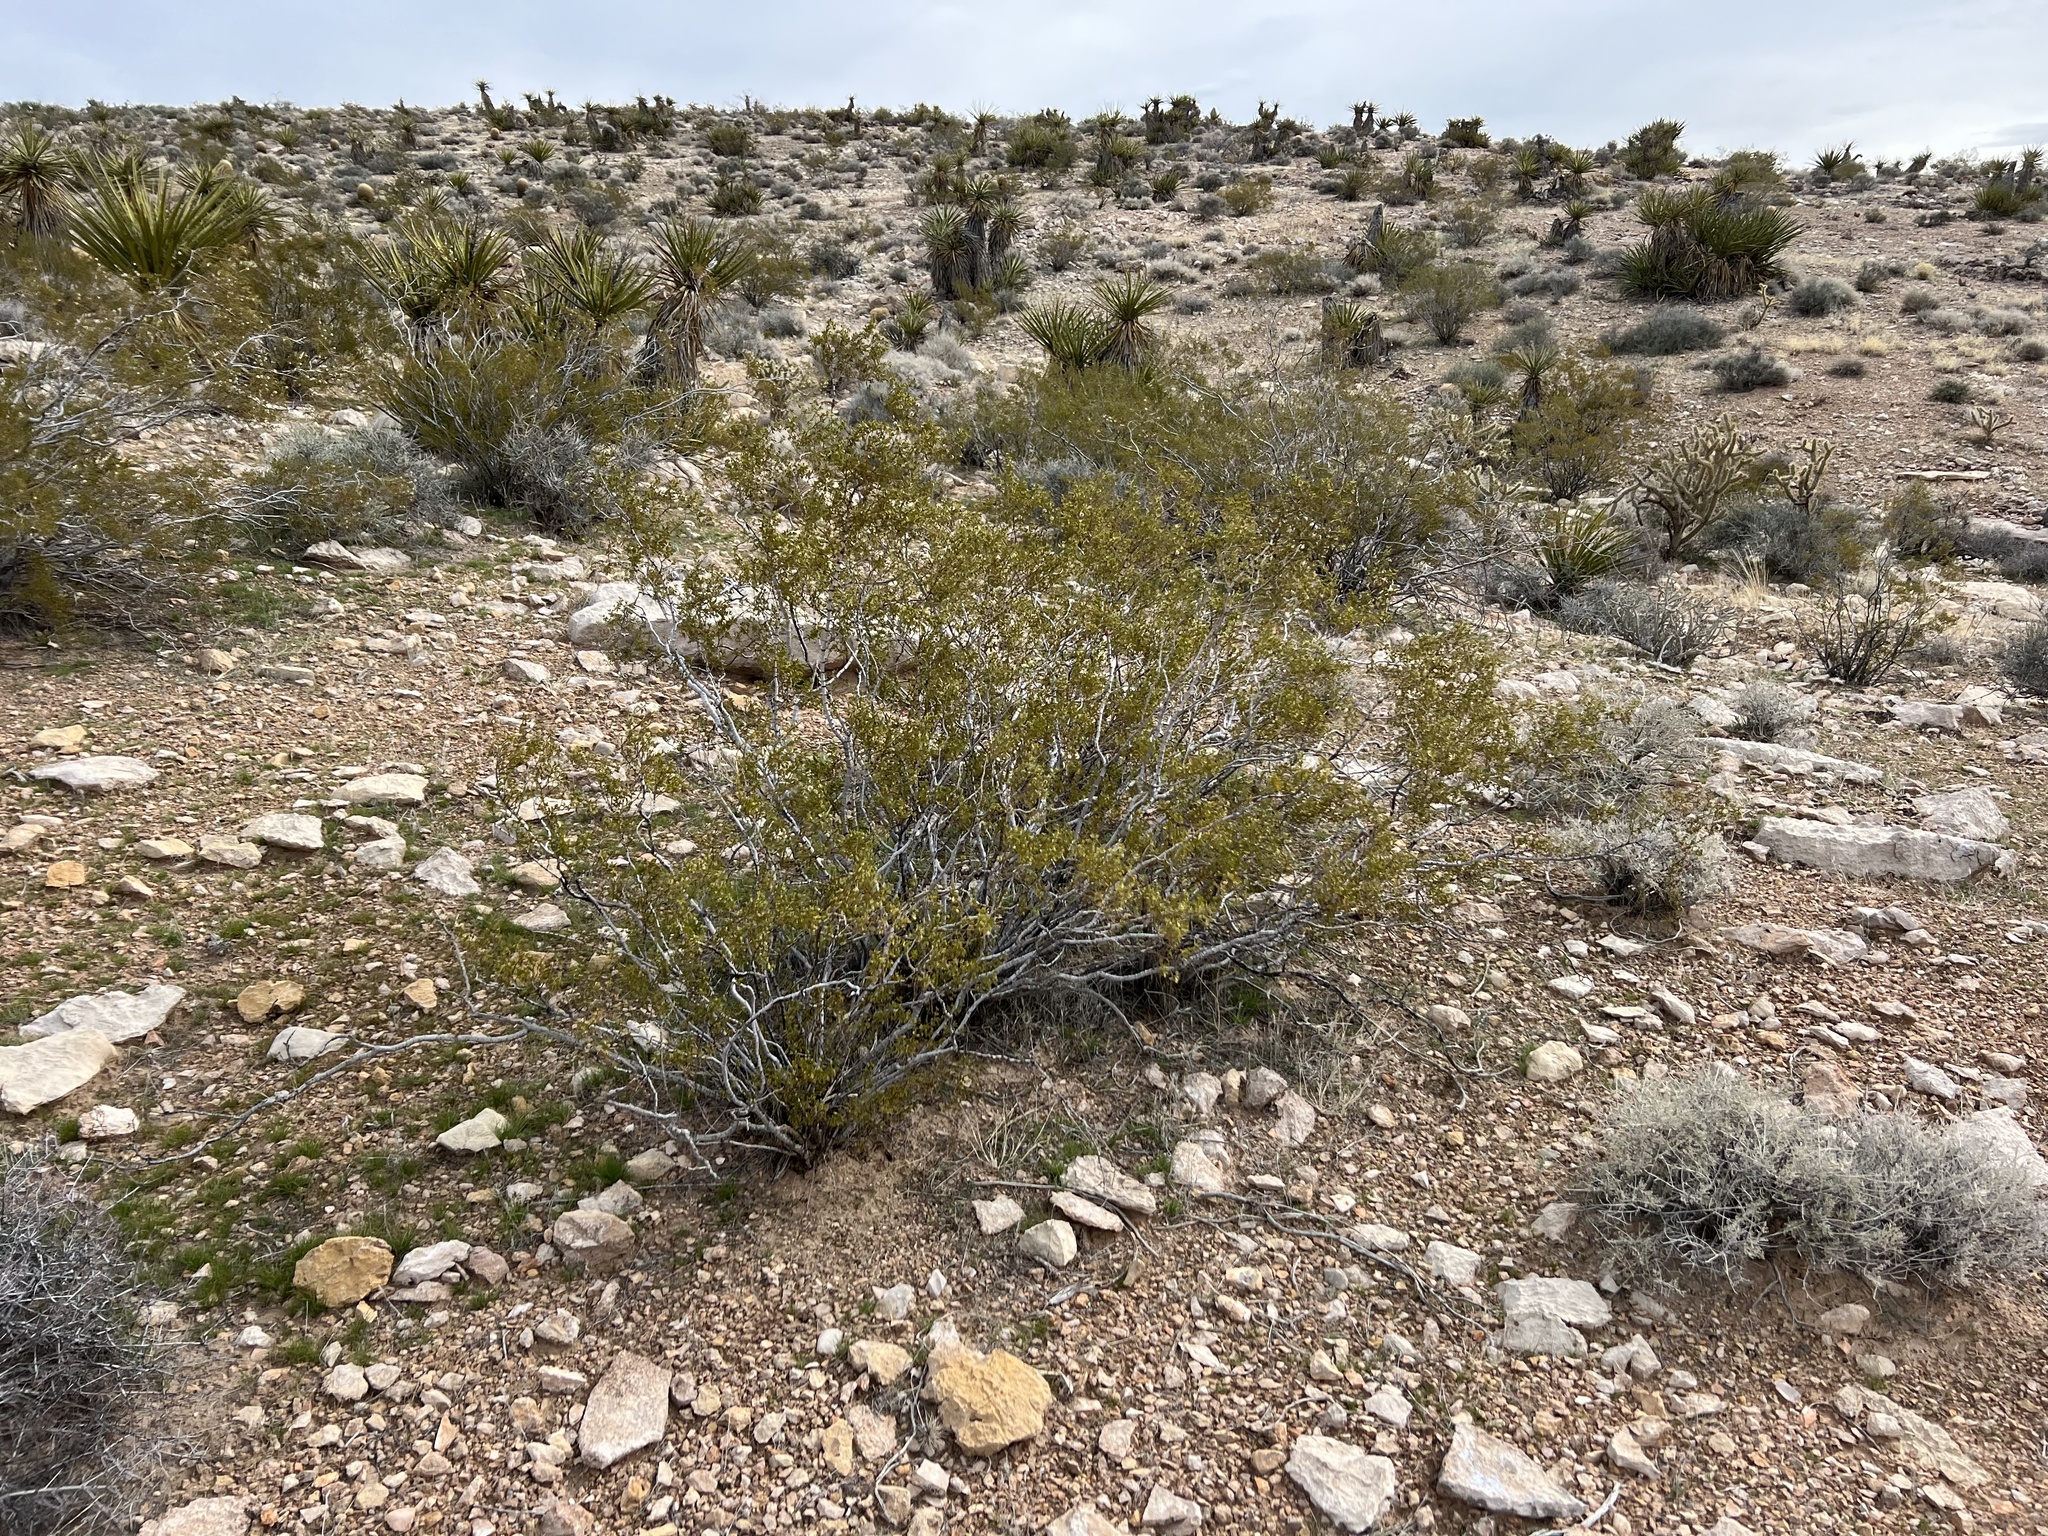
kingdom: Plantae
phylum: Tracheophyta
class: Magnoliopsida
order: Zygophyllales
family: Zygophyllaceae
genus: Larrea
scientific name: Larrea tridentata
